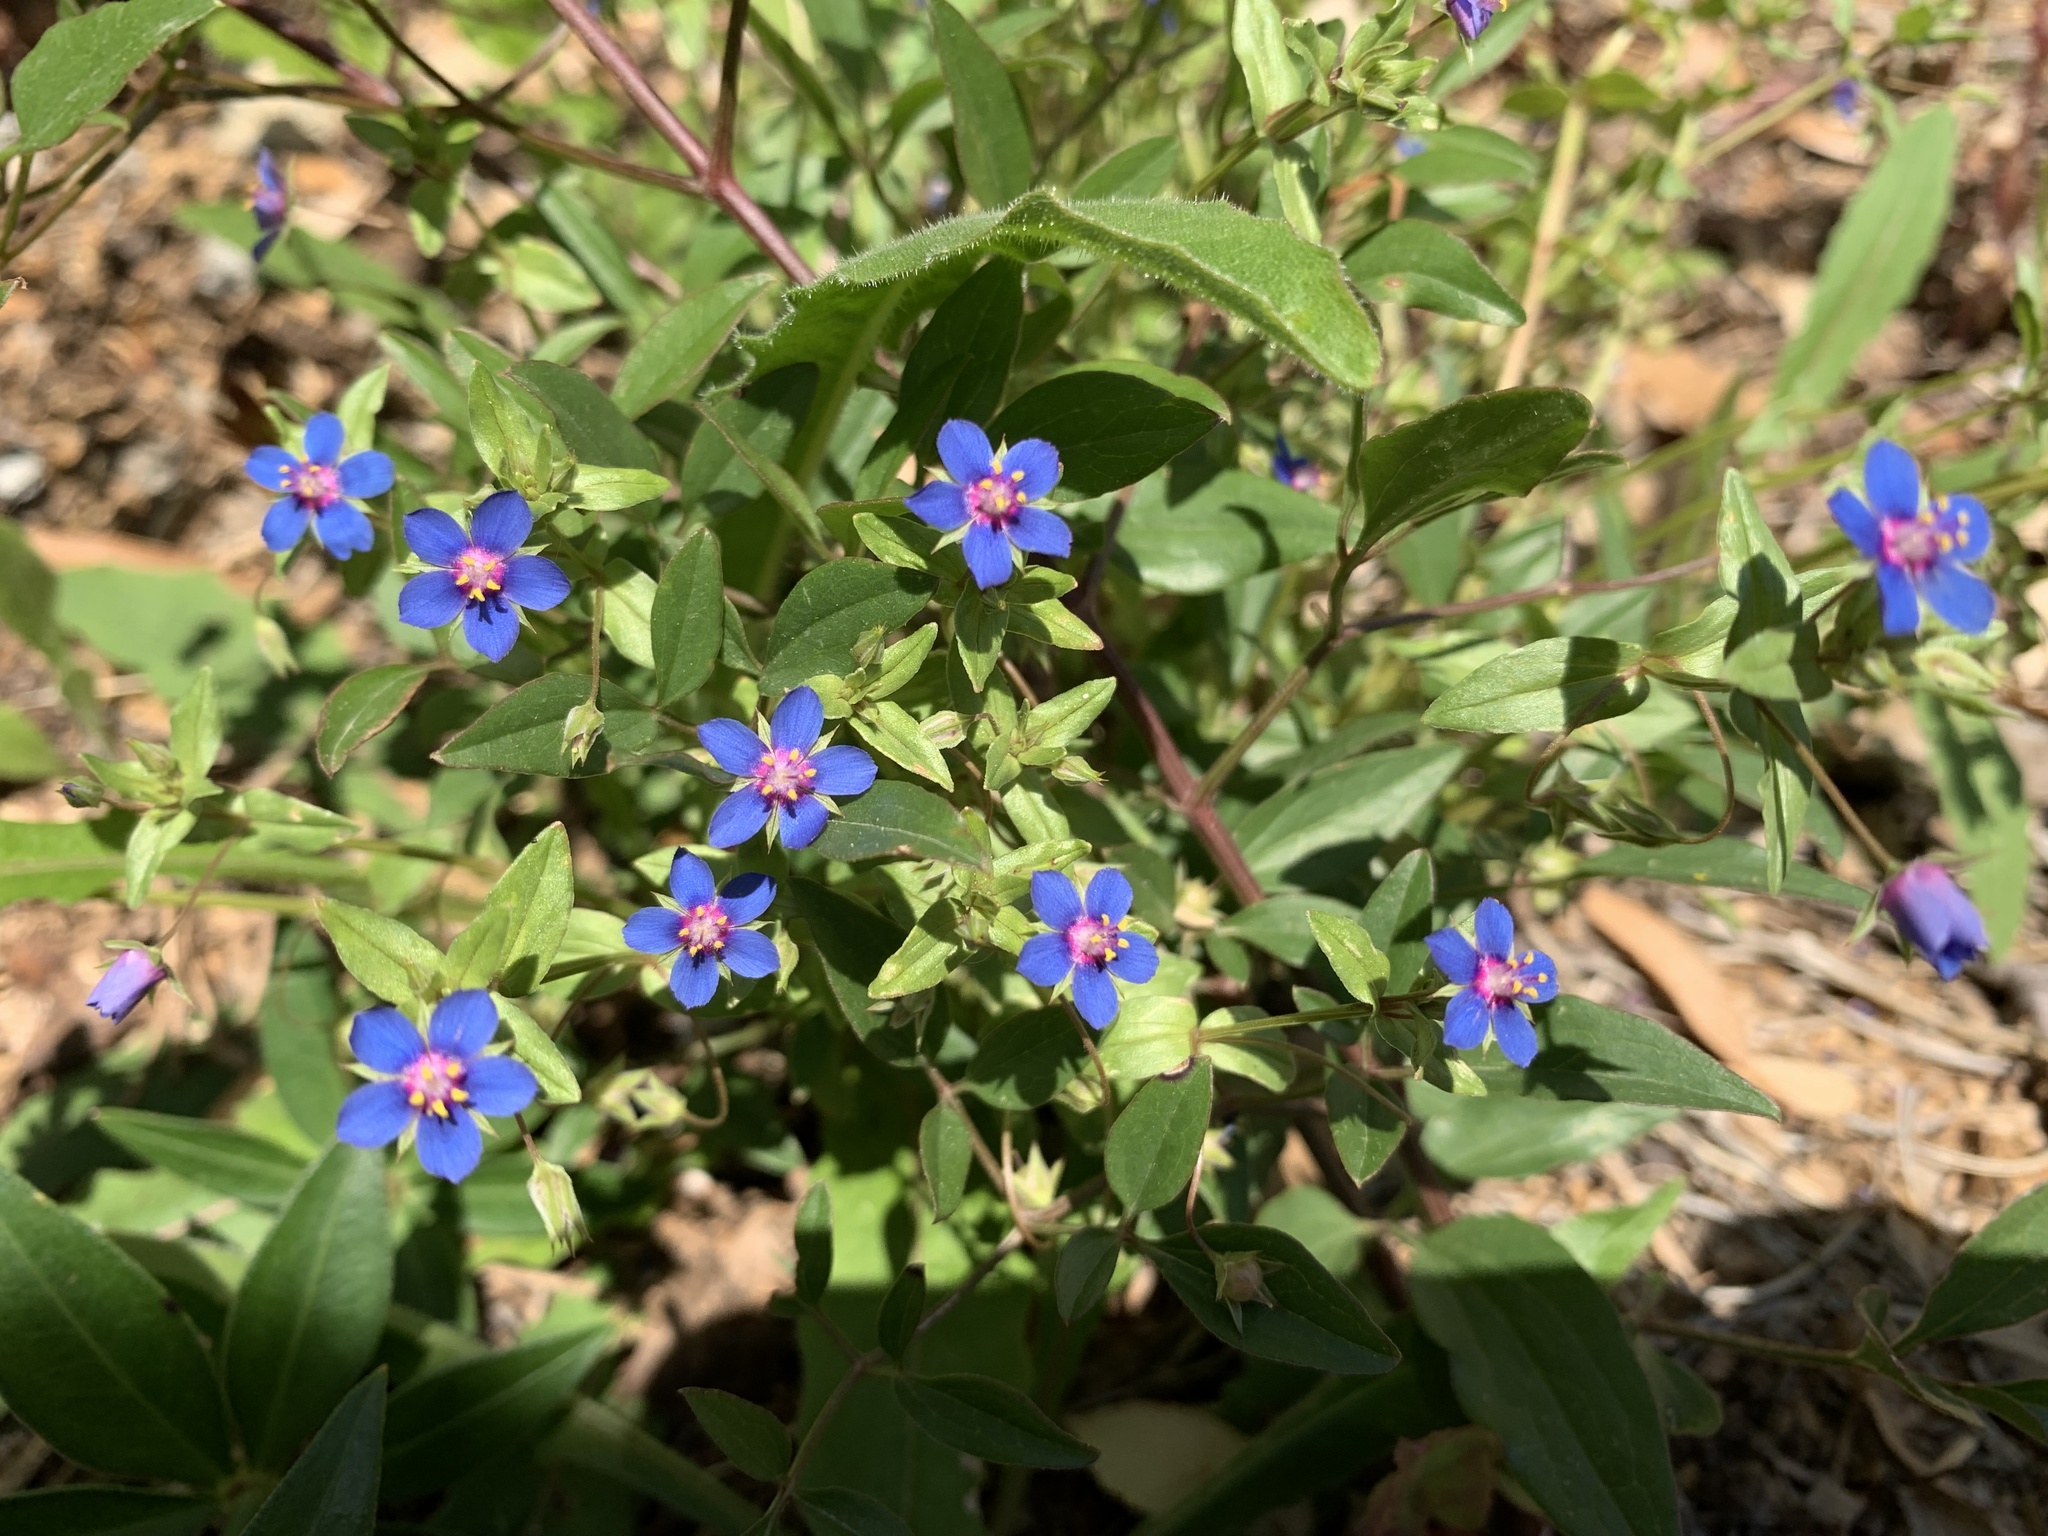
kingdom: Plantae
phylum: Tracheophyta
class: Magnoliopsida
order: Ericales
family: Primulaceae
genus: Lysimachia
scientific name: Lysimachia foemina
